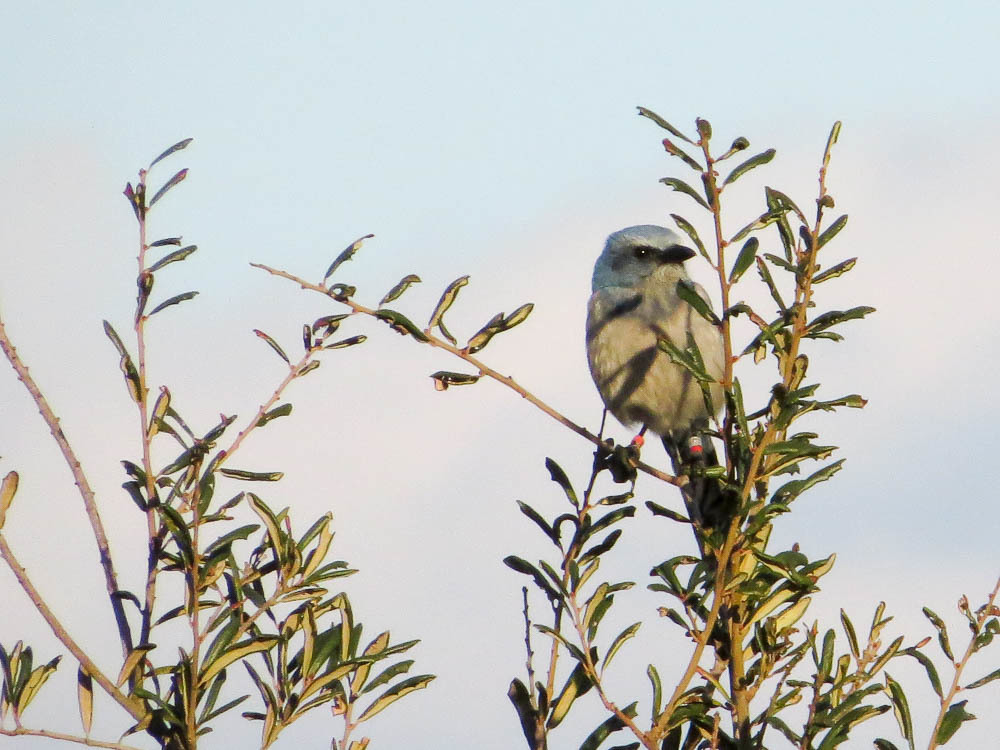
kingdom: Animalia
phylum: Chordata
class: Aves
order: Passeriformes
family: Corvidae
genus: Aphelocoma
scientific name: Aphelocoma coerulescens
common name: Florida scrub jay
